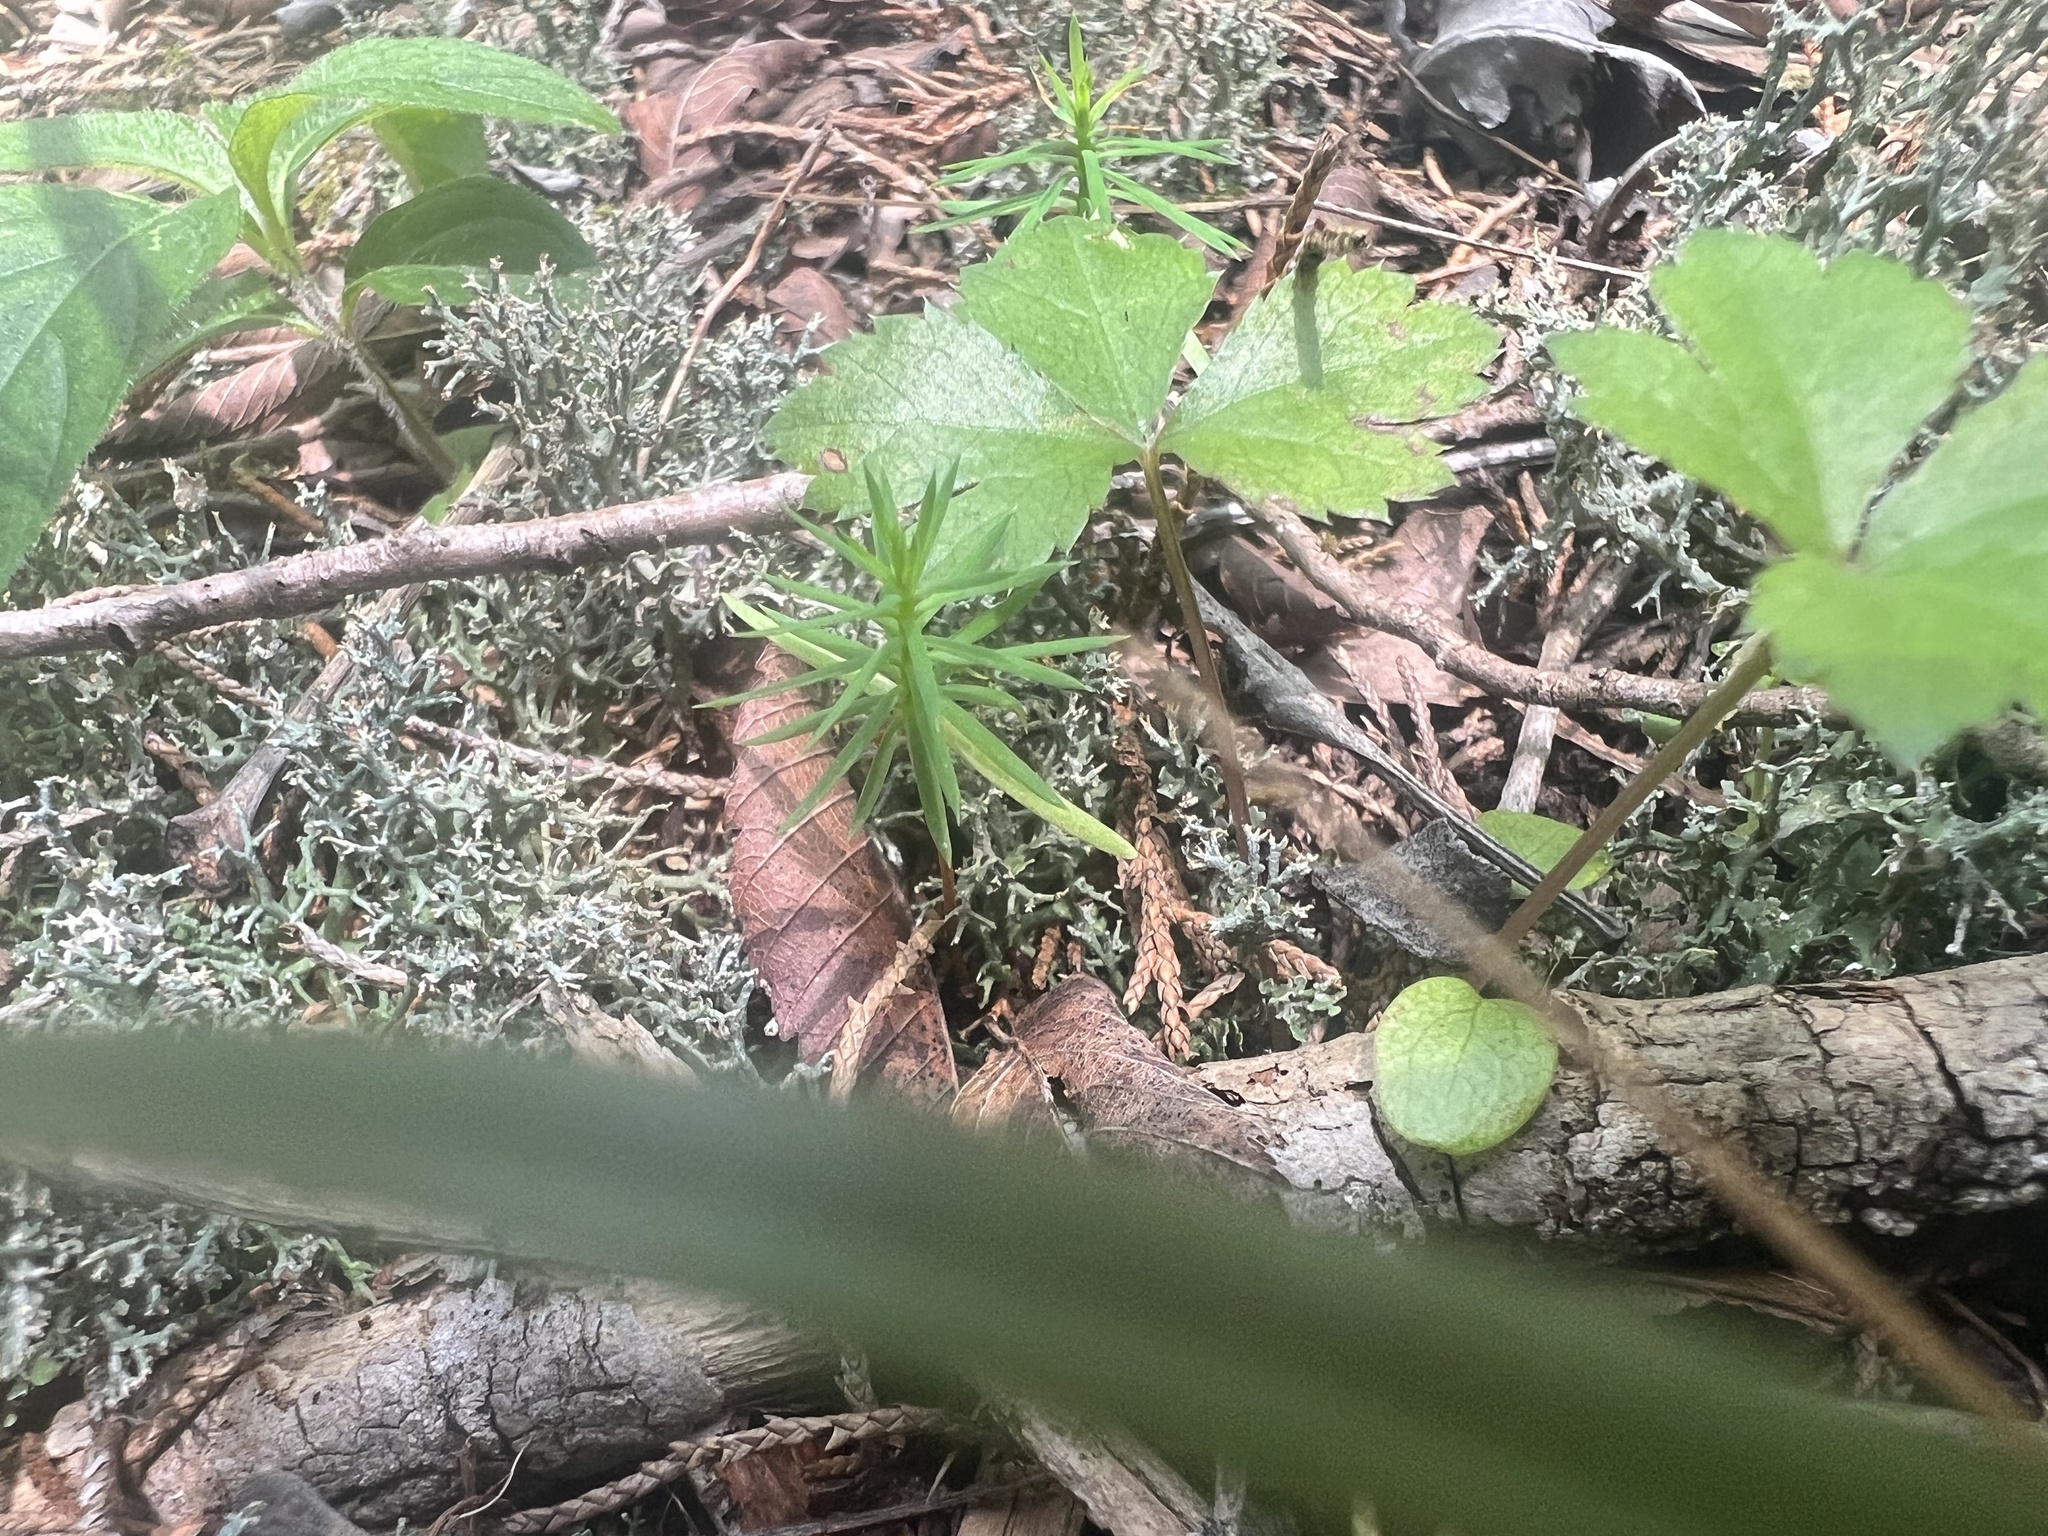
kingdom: Plantae
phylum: Tracheophyta
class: Pinopsida
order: Pinales
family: Cupressaceae
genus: Juniperus
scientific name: Juniperus virginiana
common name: Red juniper
